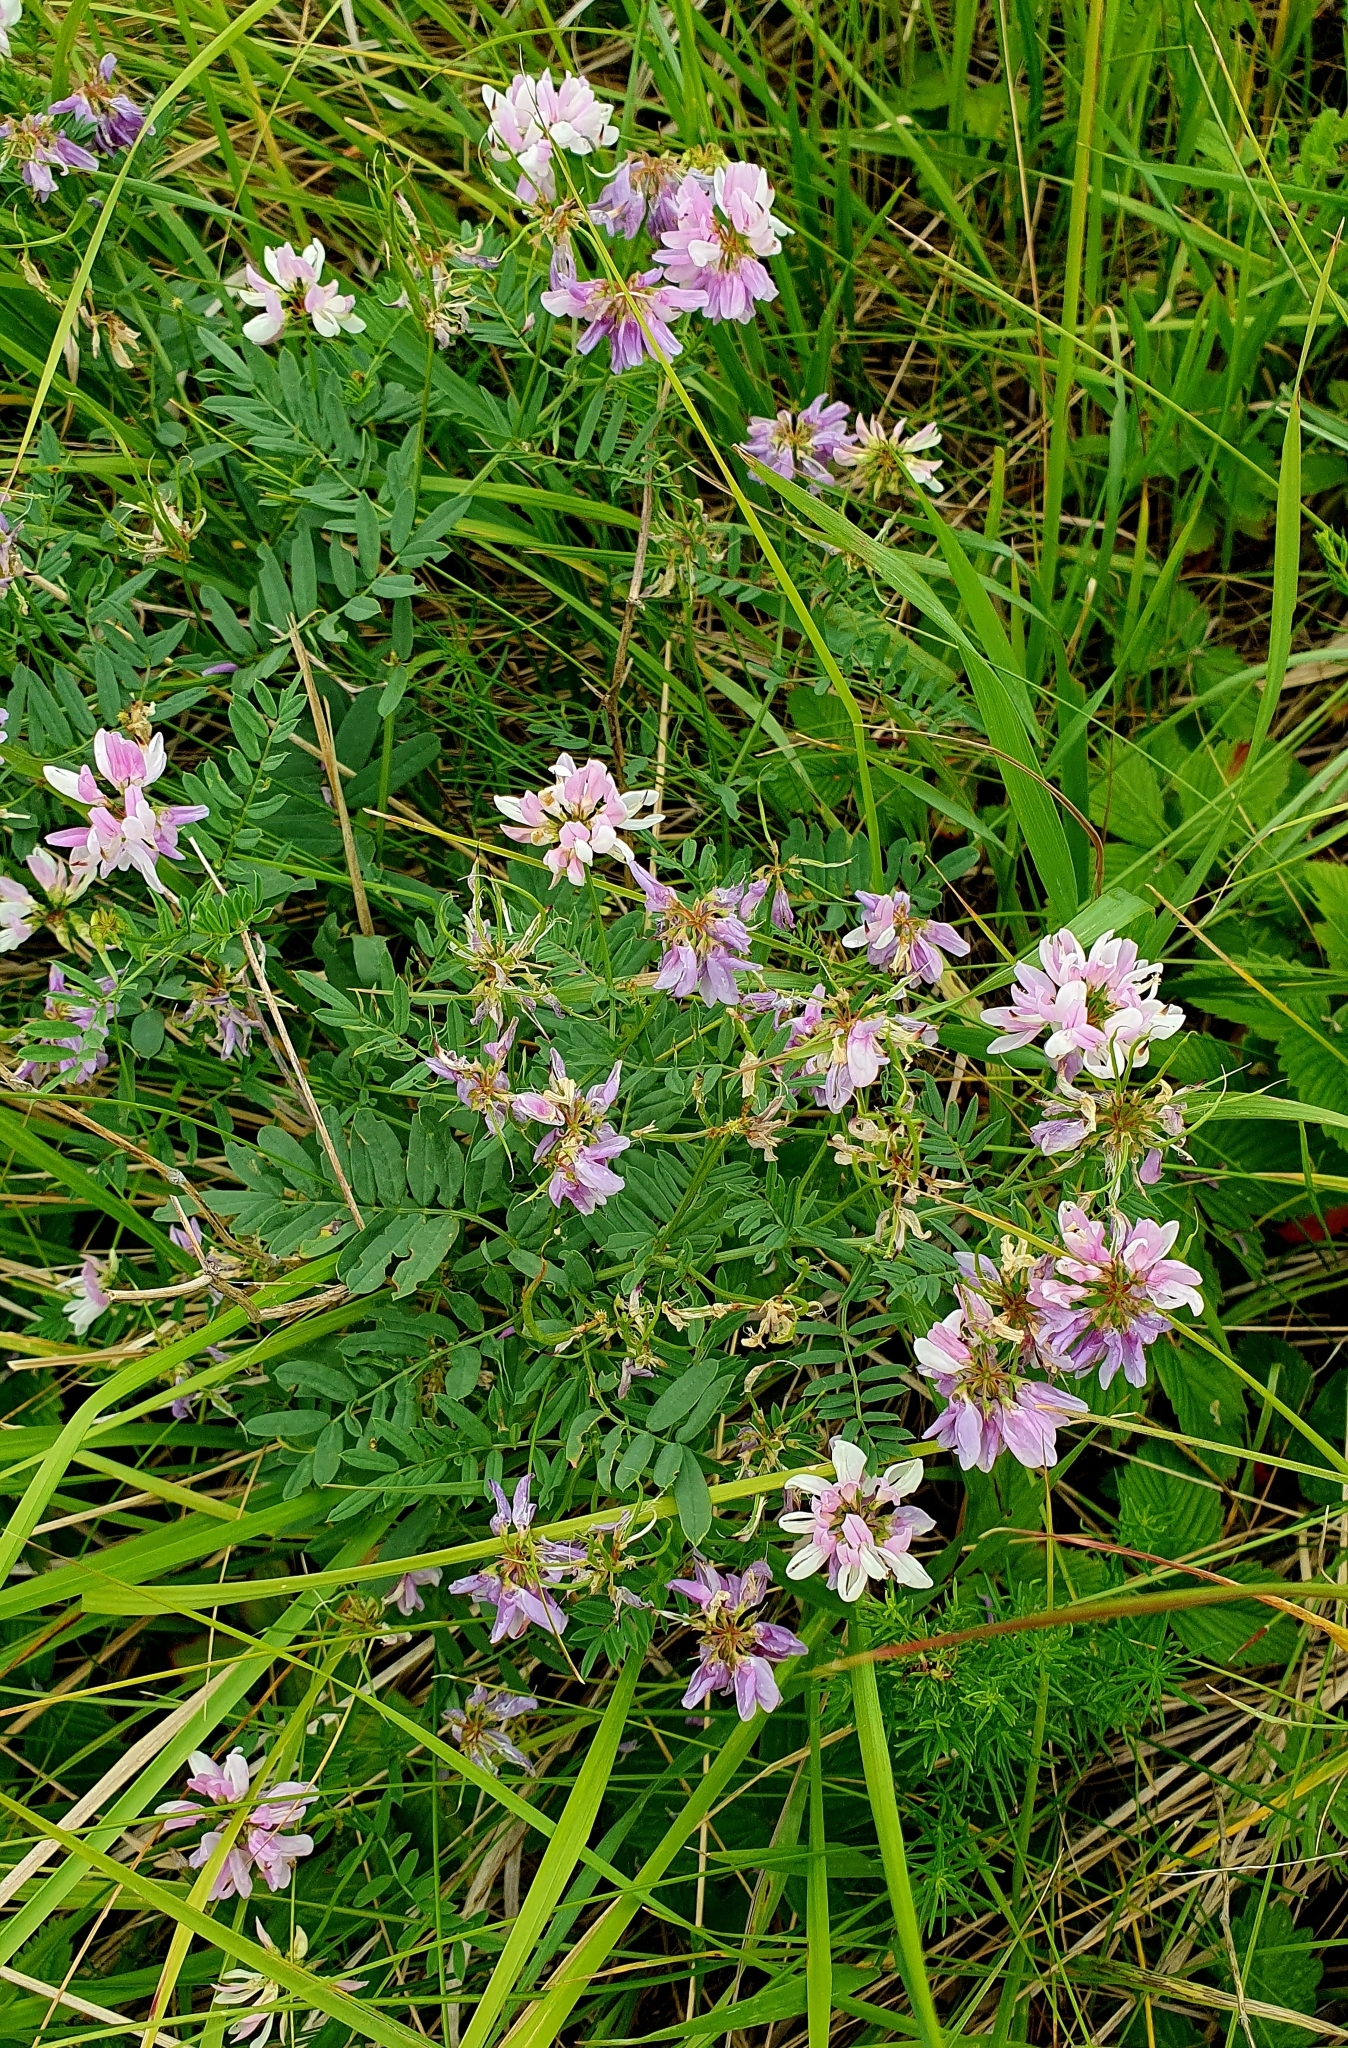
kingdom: Plantae
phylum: Tracheophyta
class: Magnoliopsida
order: Fabales
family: Fabaceae
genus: Coronilla
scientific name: Coronilla varia
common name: Crownvetch
